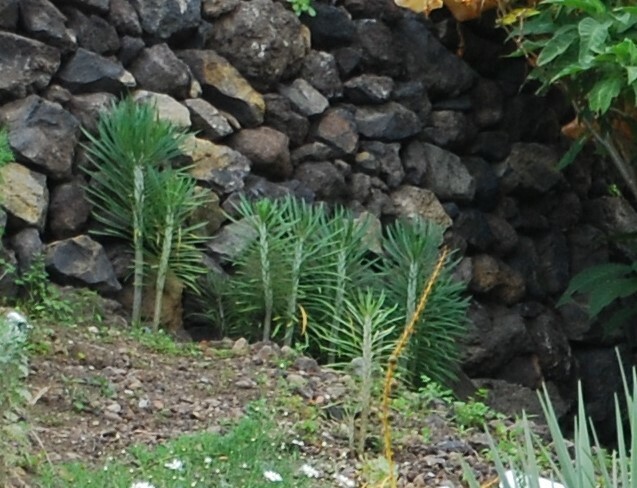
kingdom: Plantae
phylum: Tracheophyta
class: Magnoliopsida
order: Asterales
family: Asteraceae
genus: Kleinia
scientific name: Kleinia neriifolia
